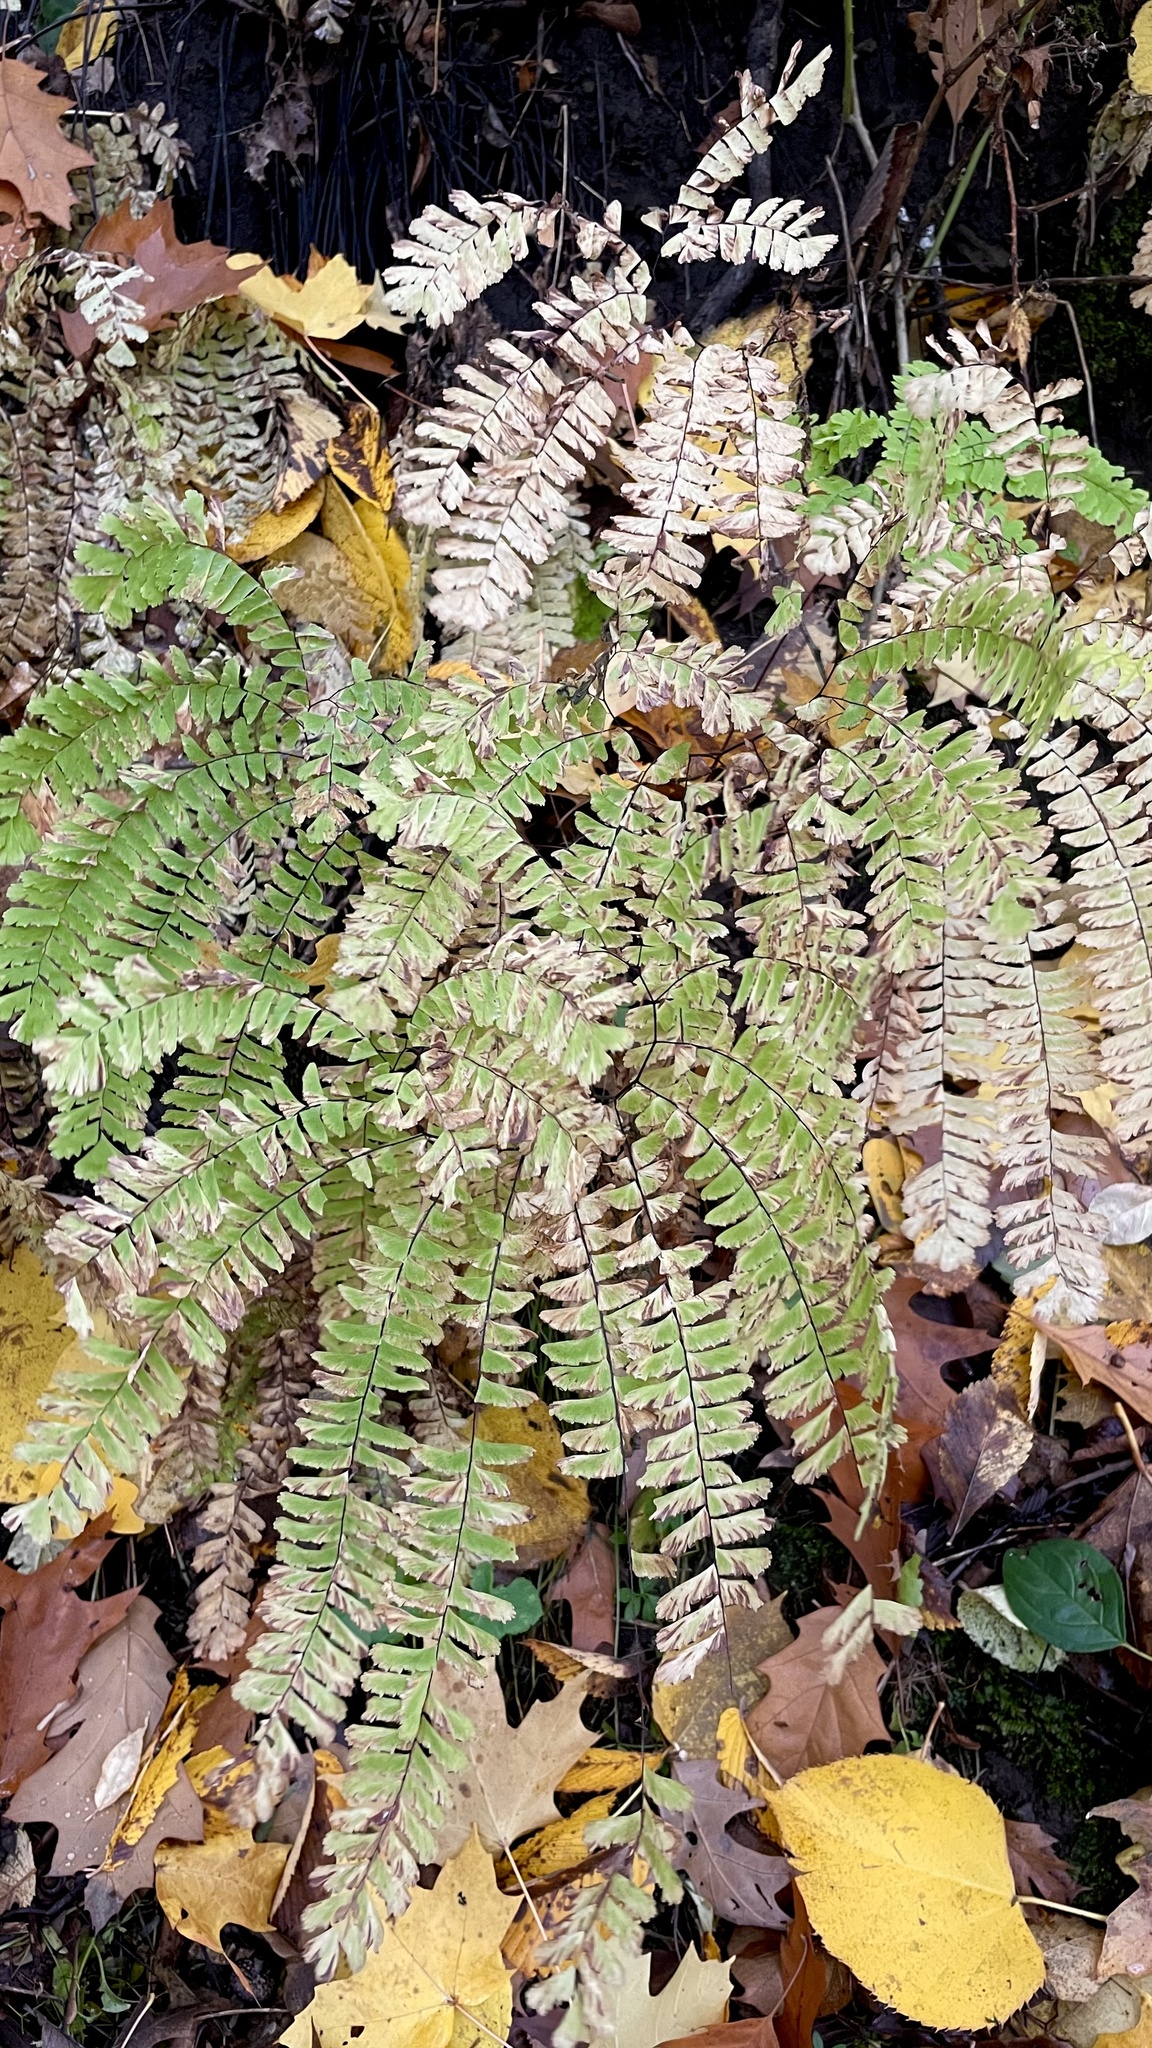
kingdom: Plantae
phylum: Tracheophyta
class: Polypodiopsida
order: Polypodiales
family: Pteridaceae
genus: Adiantum
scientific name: Adiantum pedatum
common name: Five-finger fern
